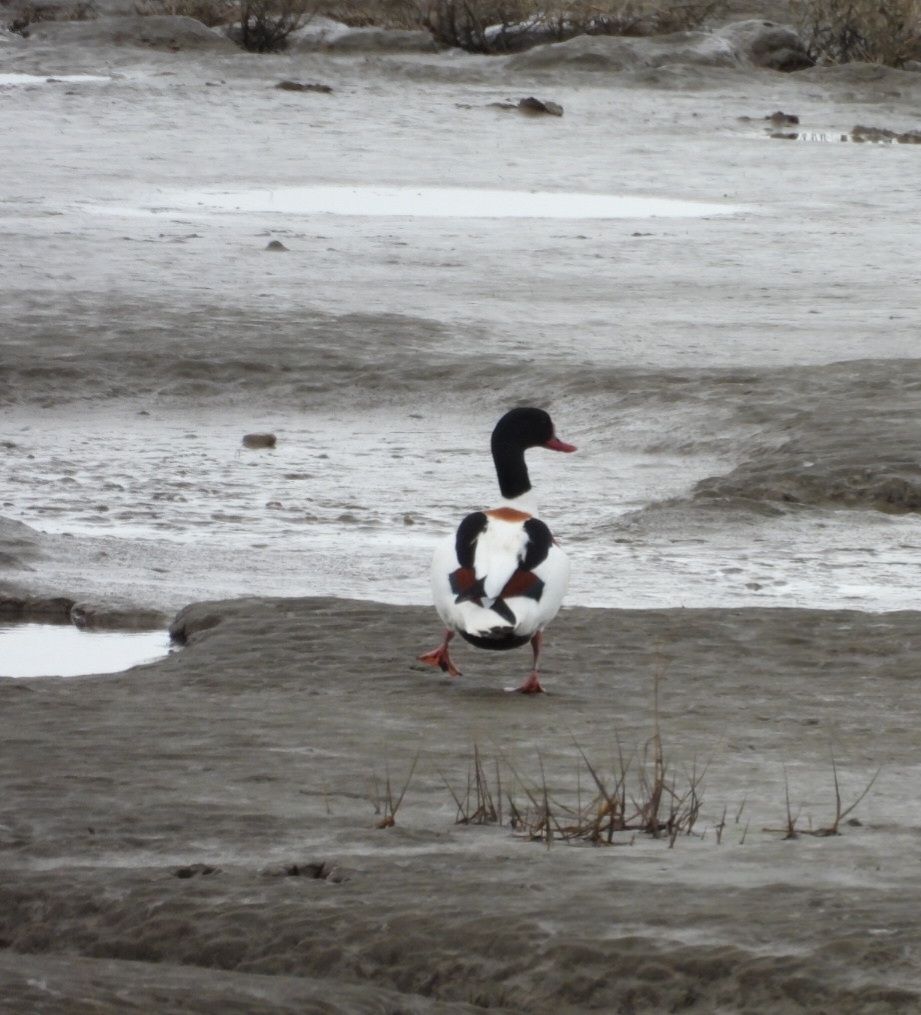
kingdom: Animalia
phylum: Chordata
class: Aves
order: Anseriformes
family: Anatidae
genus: Tadorna
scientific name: Tadorna tadorna
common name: Common shelduck
